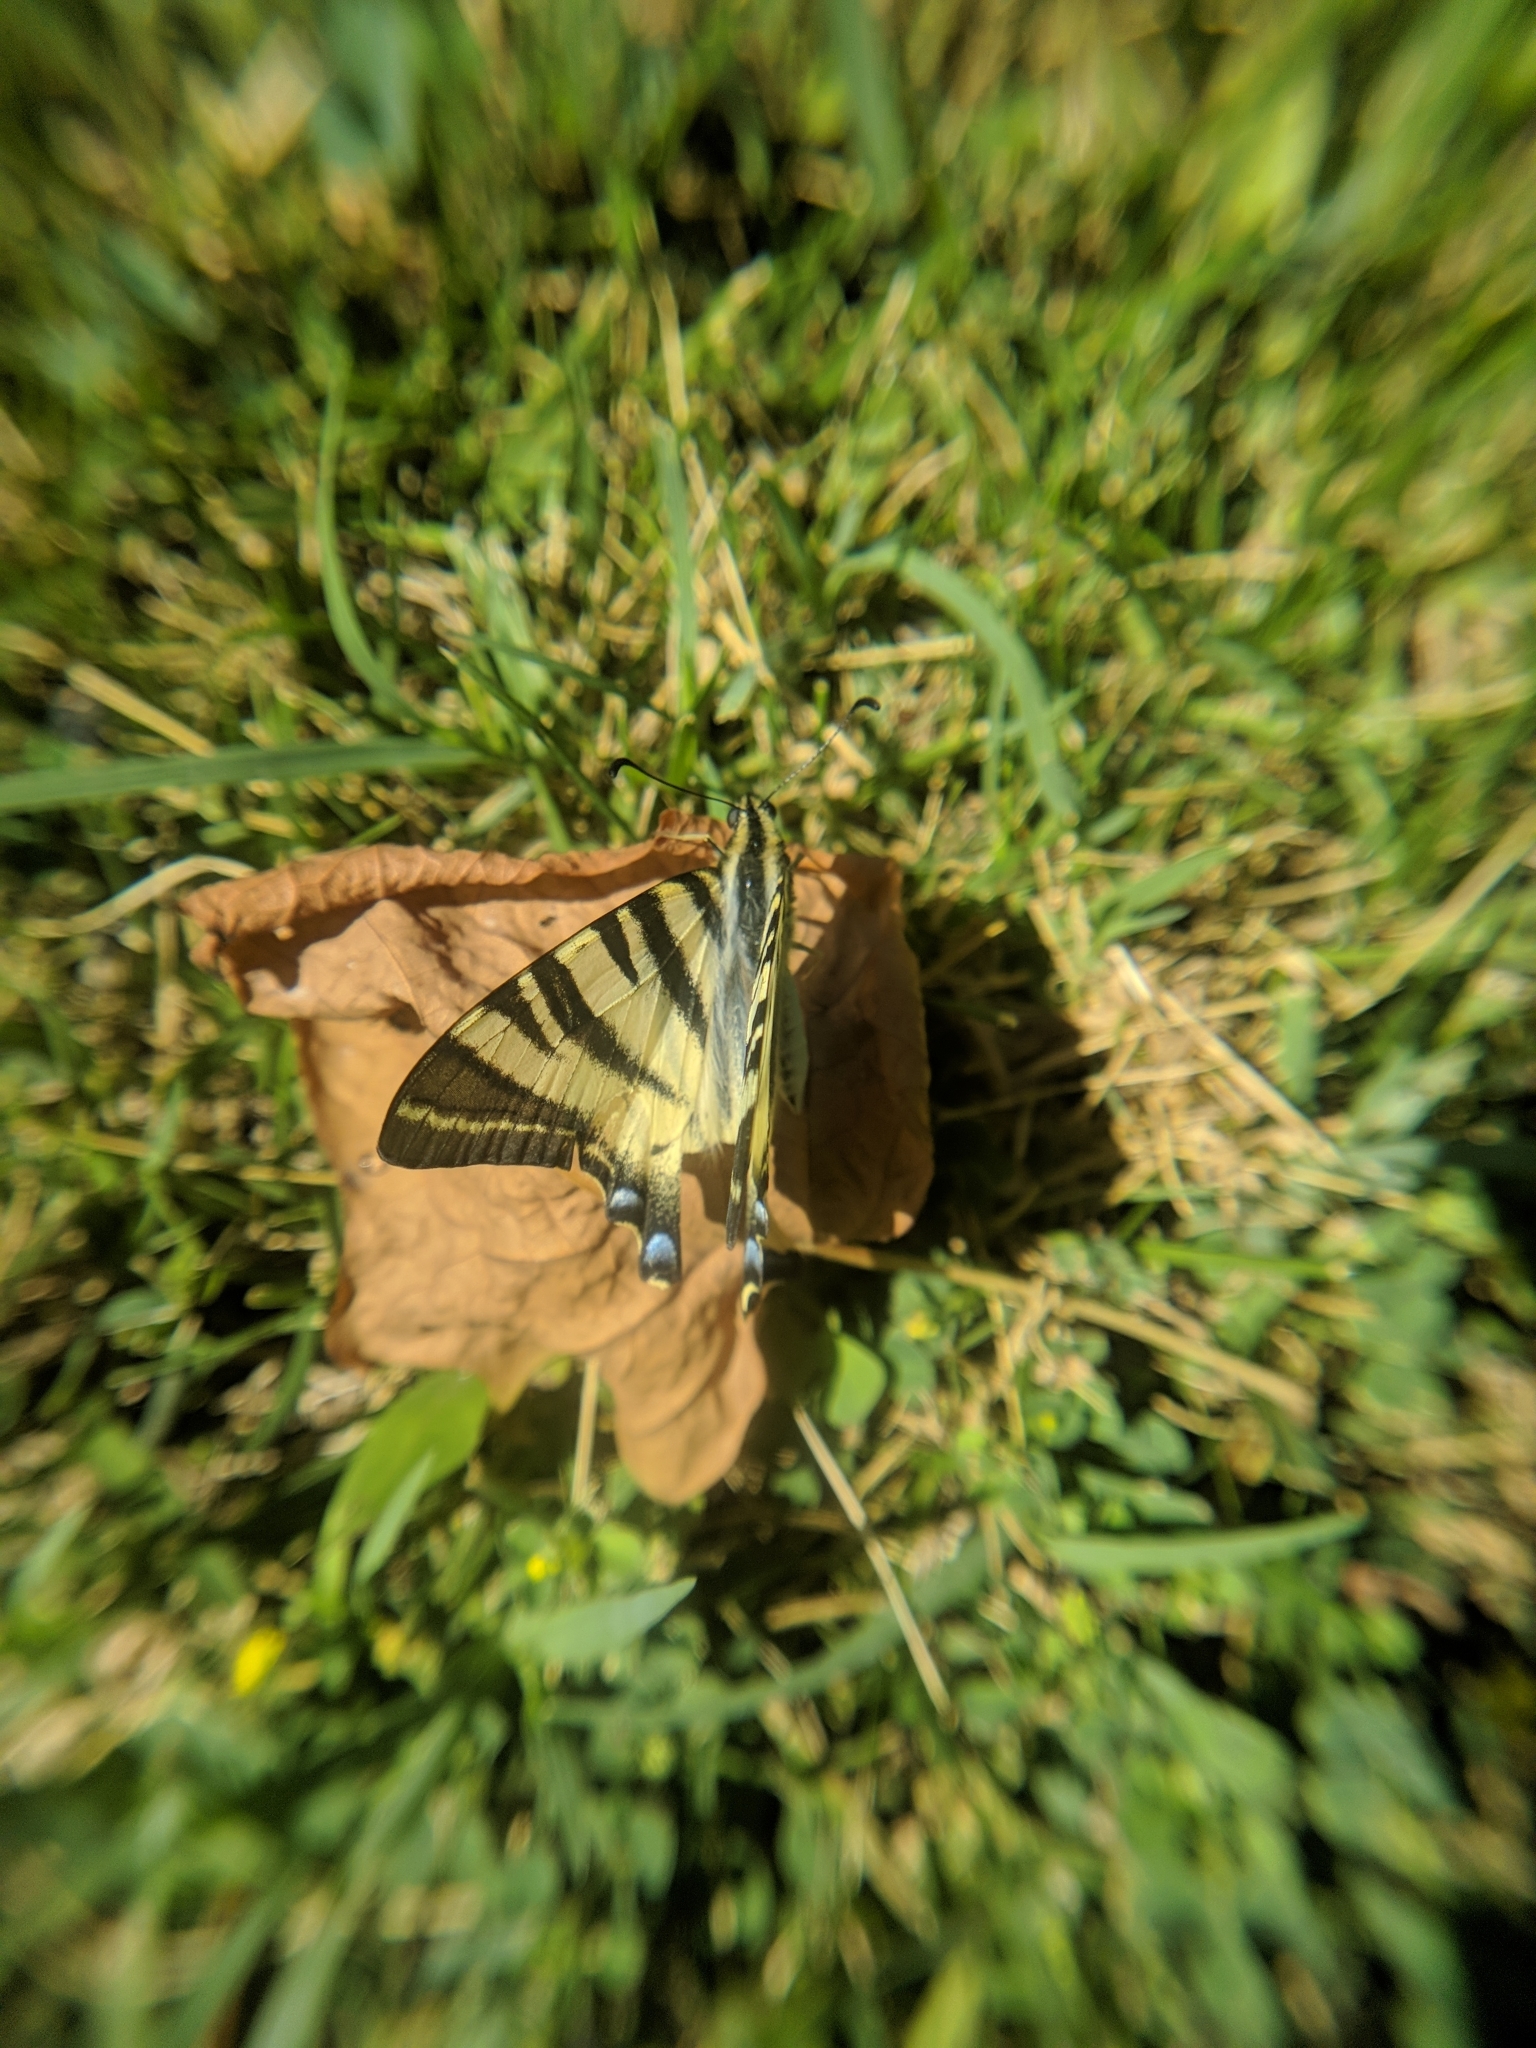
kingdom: Animalia
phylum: Arthropoda
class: Insecta
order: Lepidoptera
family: Papilionidae
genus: Iphiclides
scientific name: Iphiclides podalirius
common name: Scarce swallowtail
